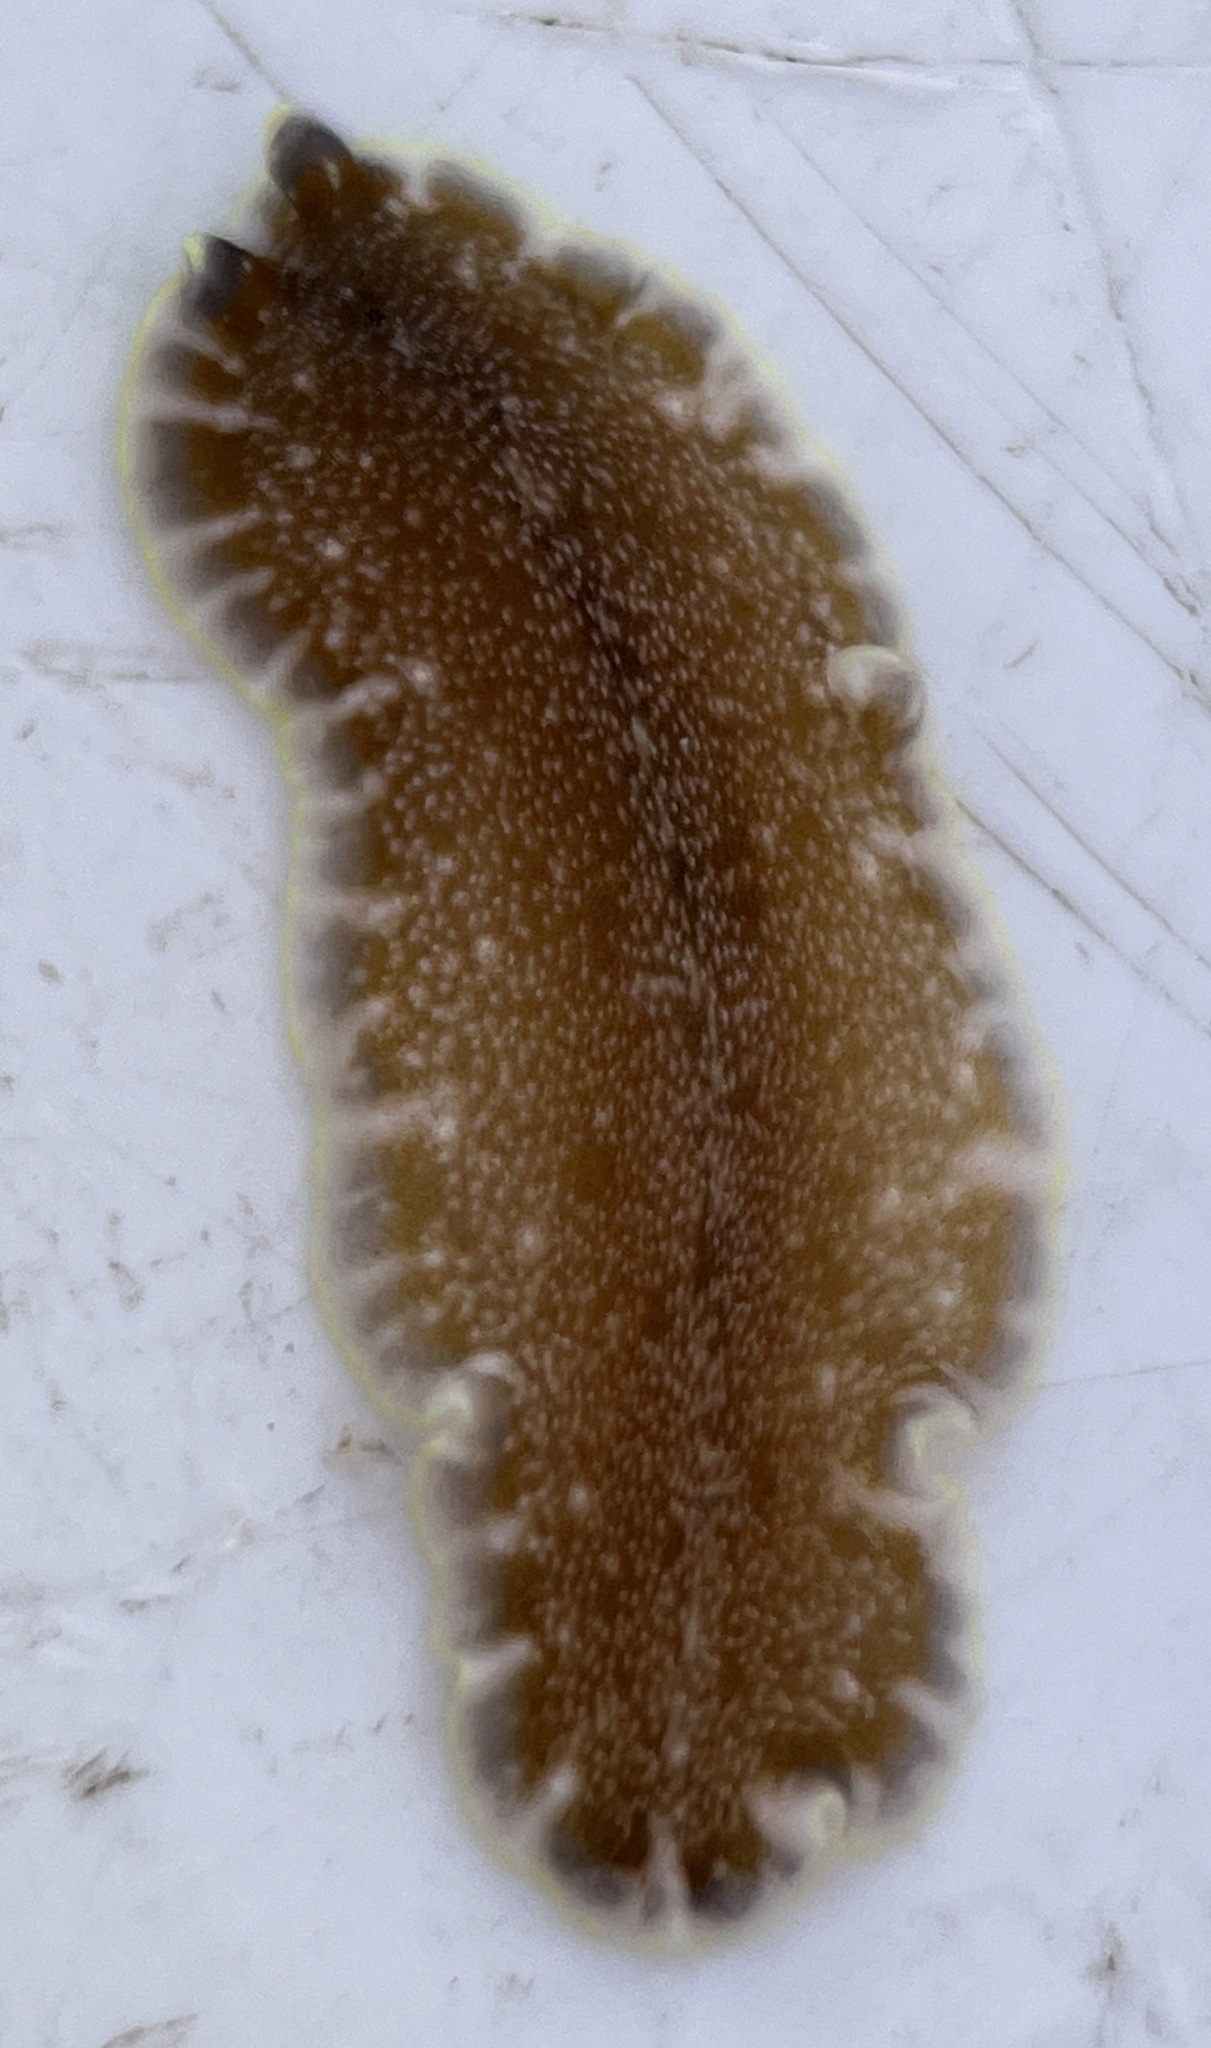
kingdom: Animalia
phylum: Platyhelminthes
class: Turbellaria
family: Pseudocerotidae
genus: Pseudoceros
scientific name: Pseudoceros bicolor
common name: Bicolored flatworm
